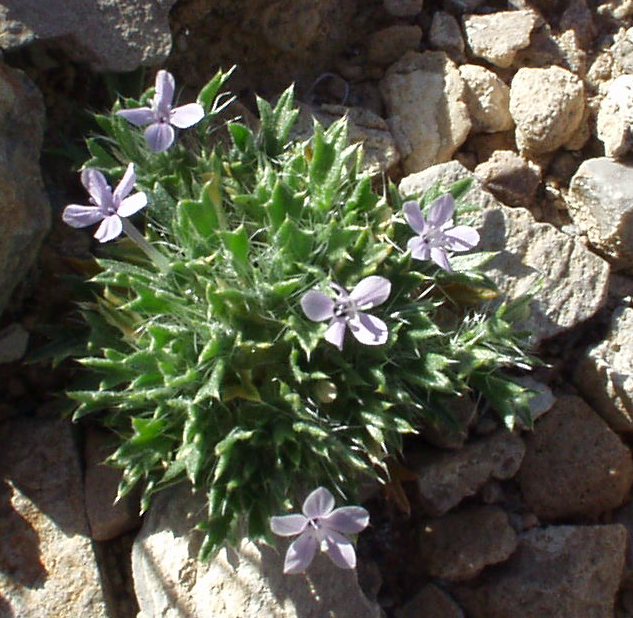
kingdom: Plantae
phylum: Tracheophyta
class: Magnoliopsida
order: Ericales
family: Polemoniaceae
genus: Langloisia
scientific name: Langloisia setosissima
